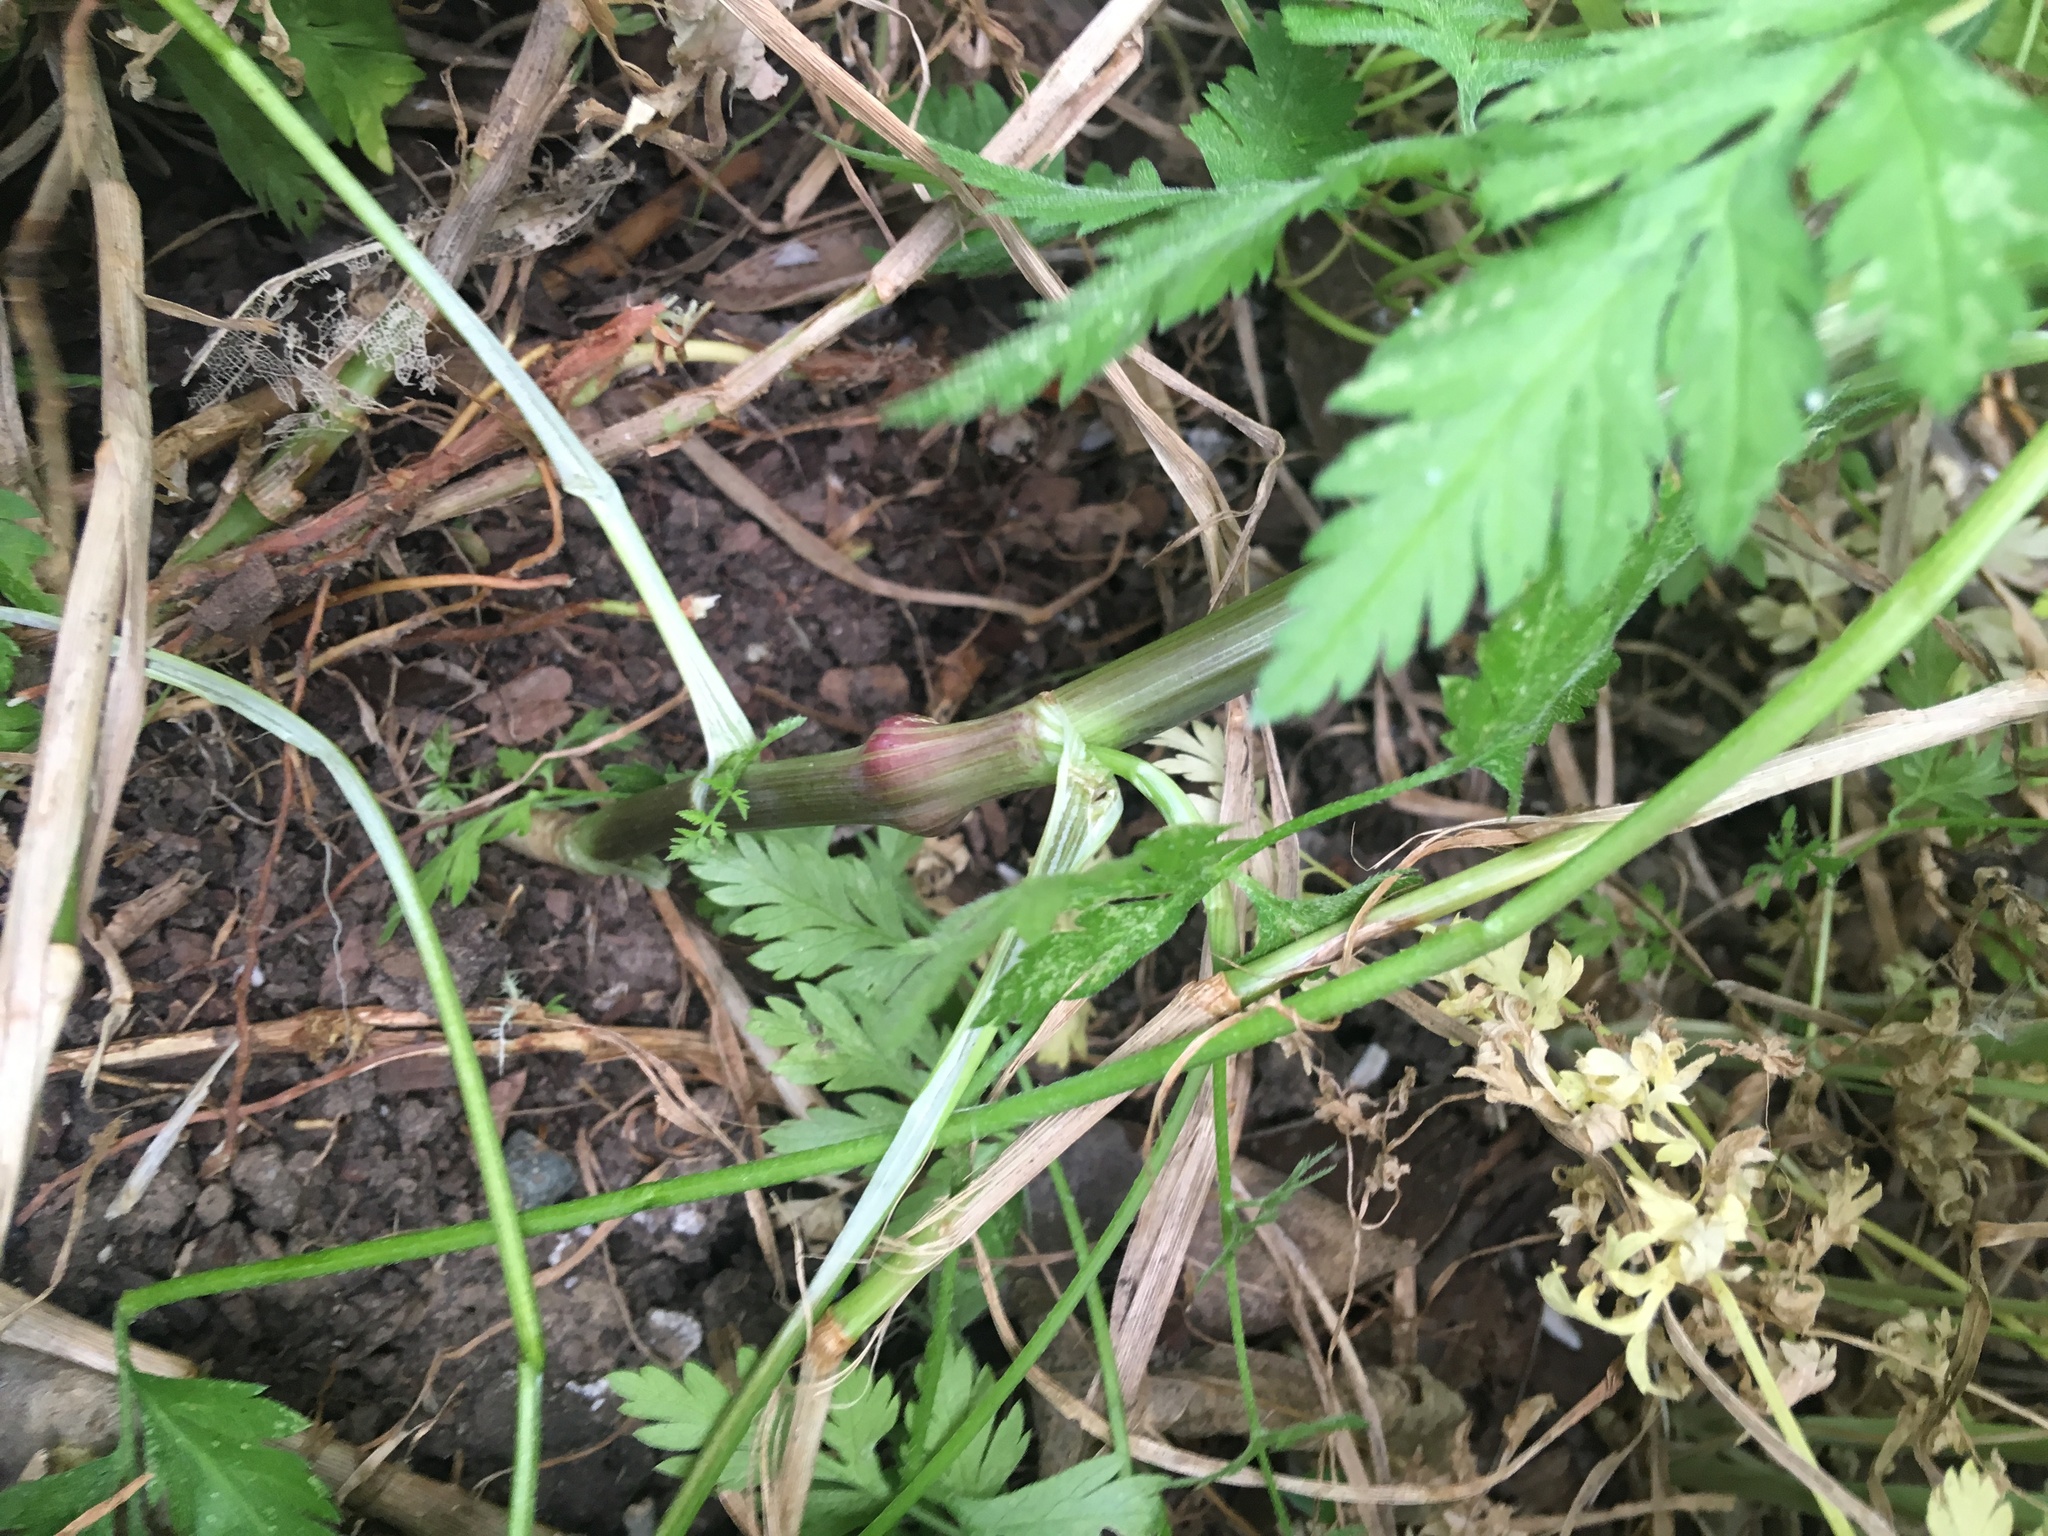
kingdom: Plantae
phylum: Tracheophyta
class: Magnoliopsida
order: Apiales
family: Apiaceae
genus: Sison
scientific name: Sison amomum
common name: Stone-parsley
